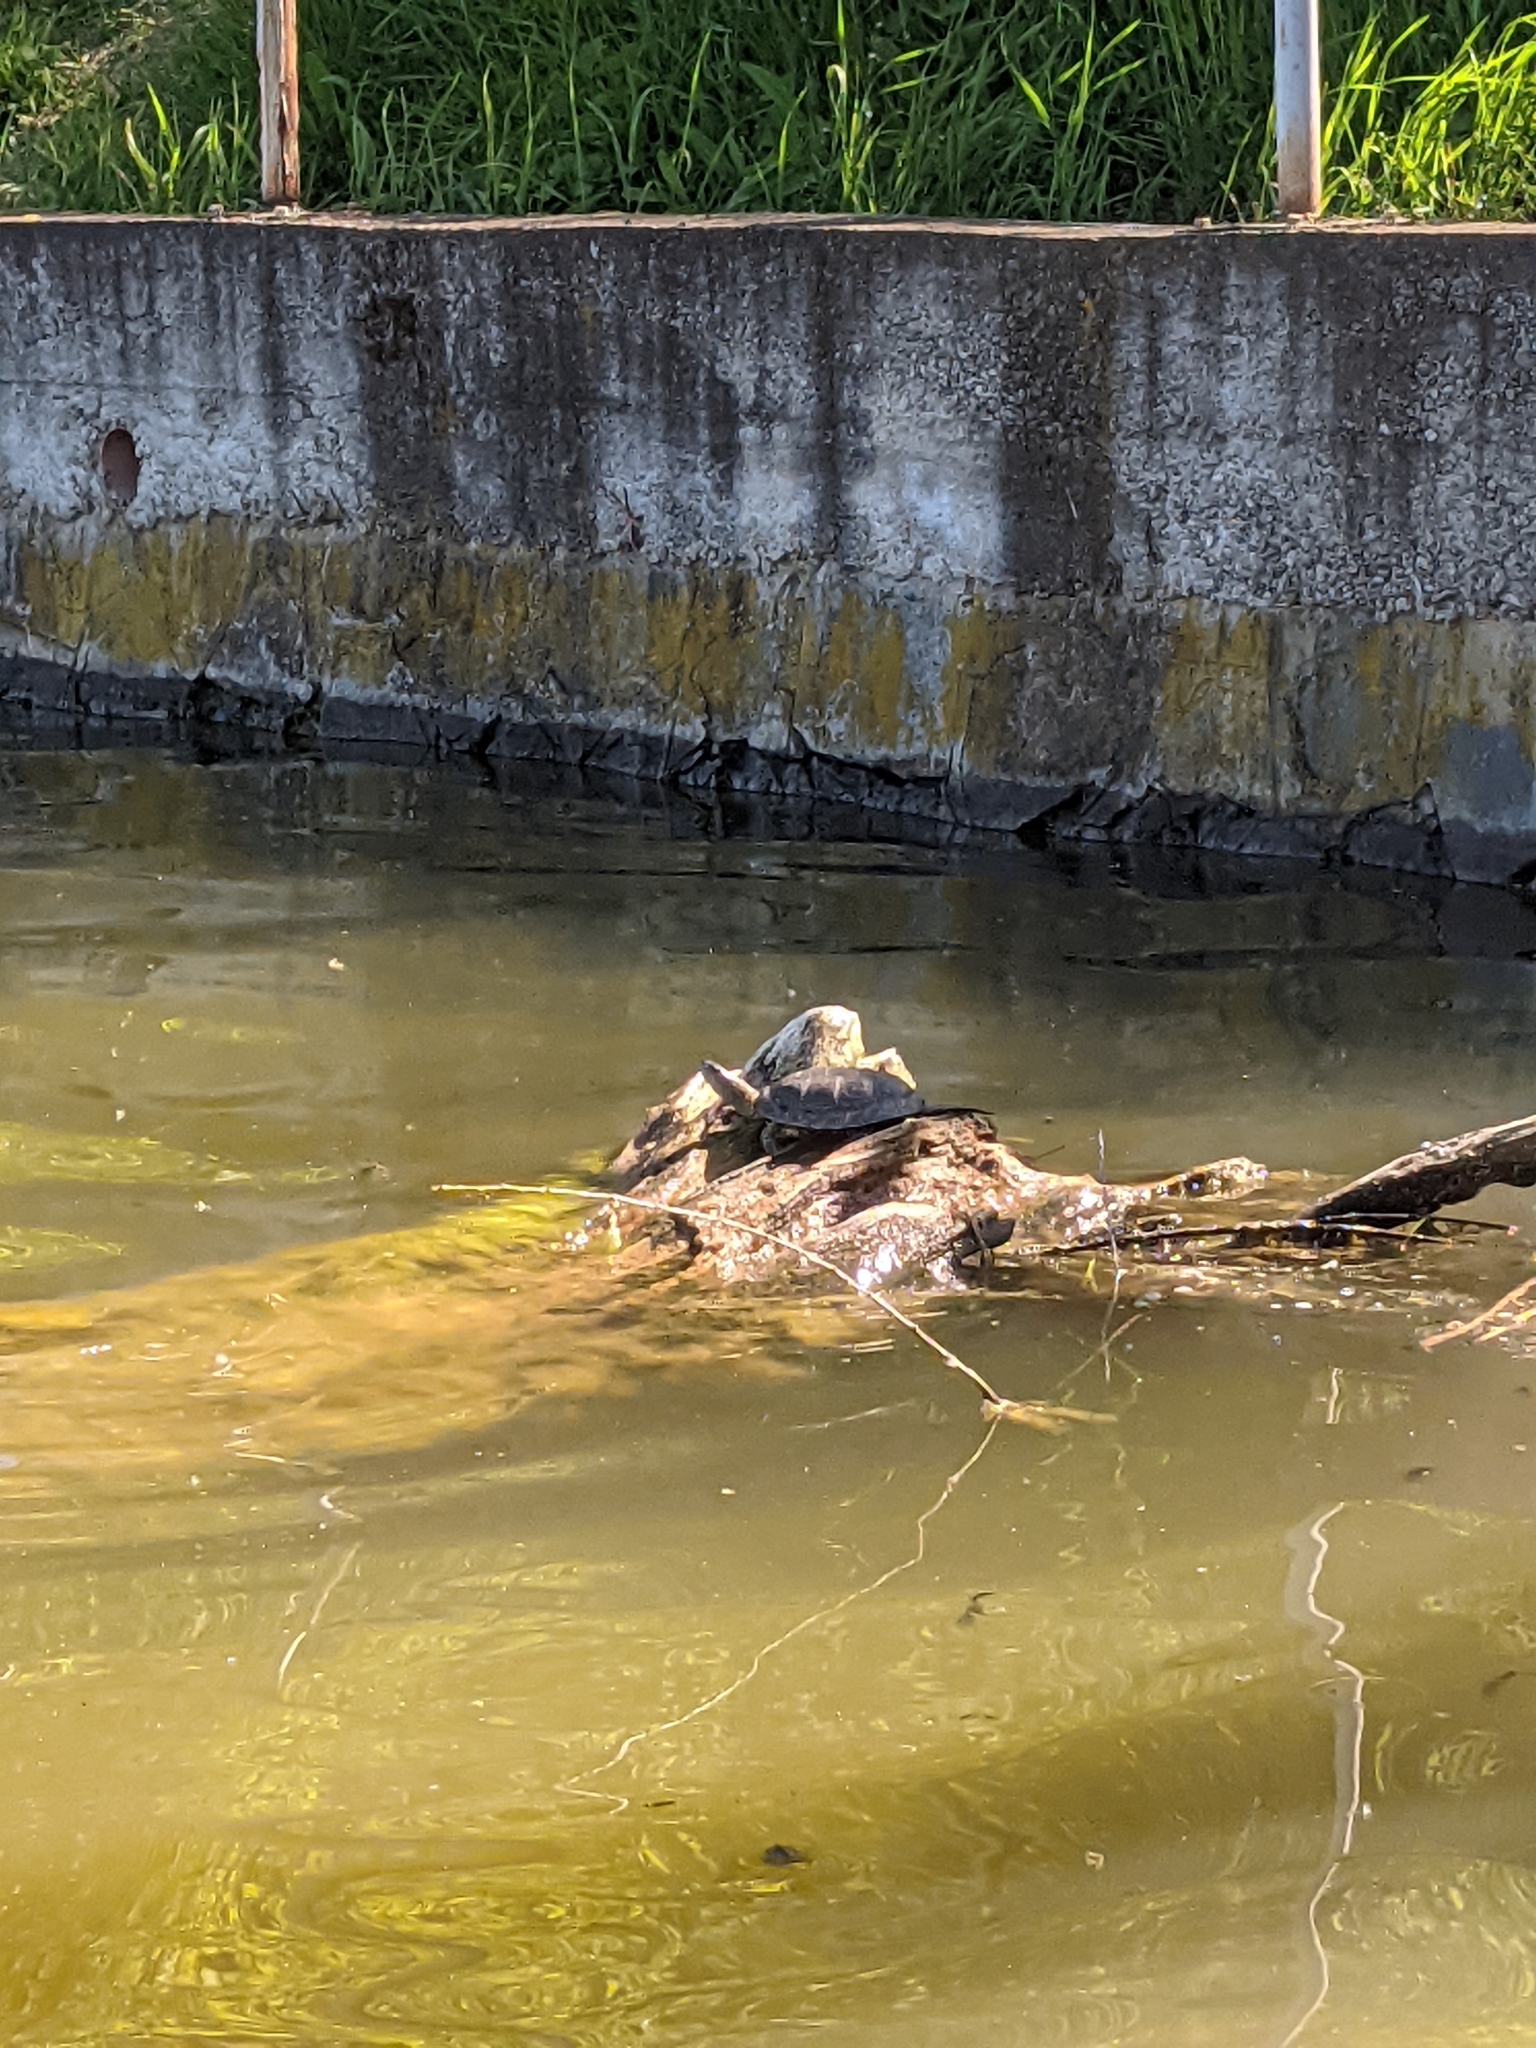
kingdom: Animalia
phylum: Chordata
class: Testudines
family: Emydidae
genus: Emys
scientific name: Emys orbicularis
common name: European pond turtle
